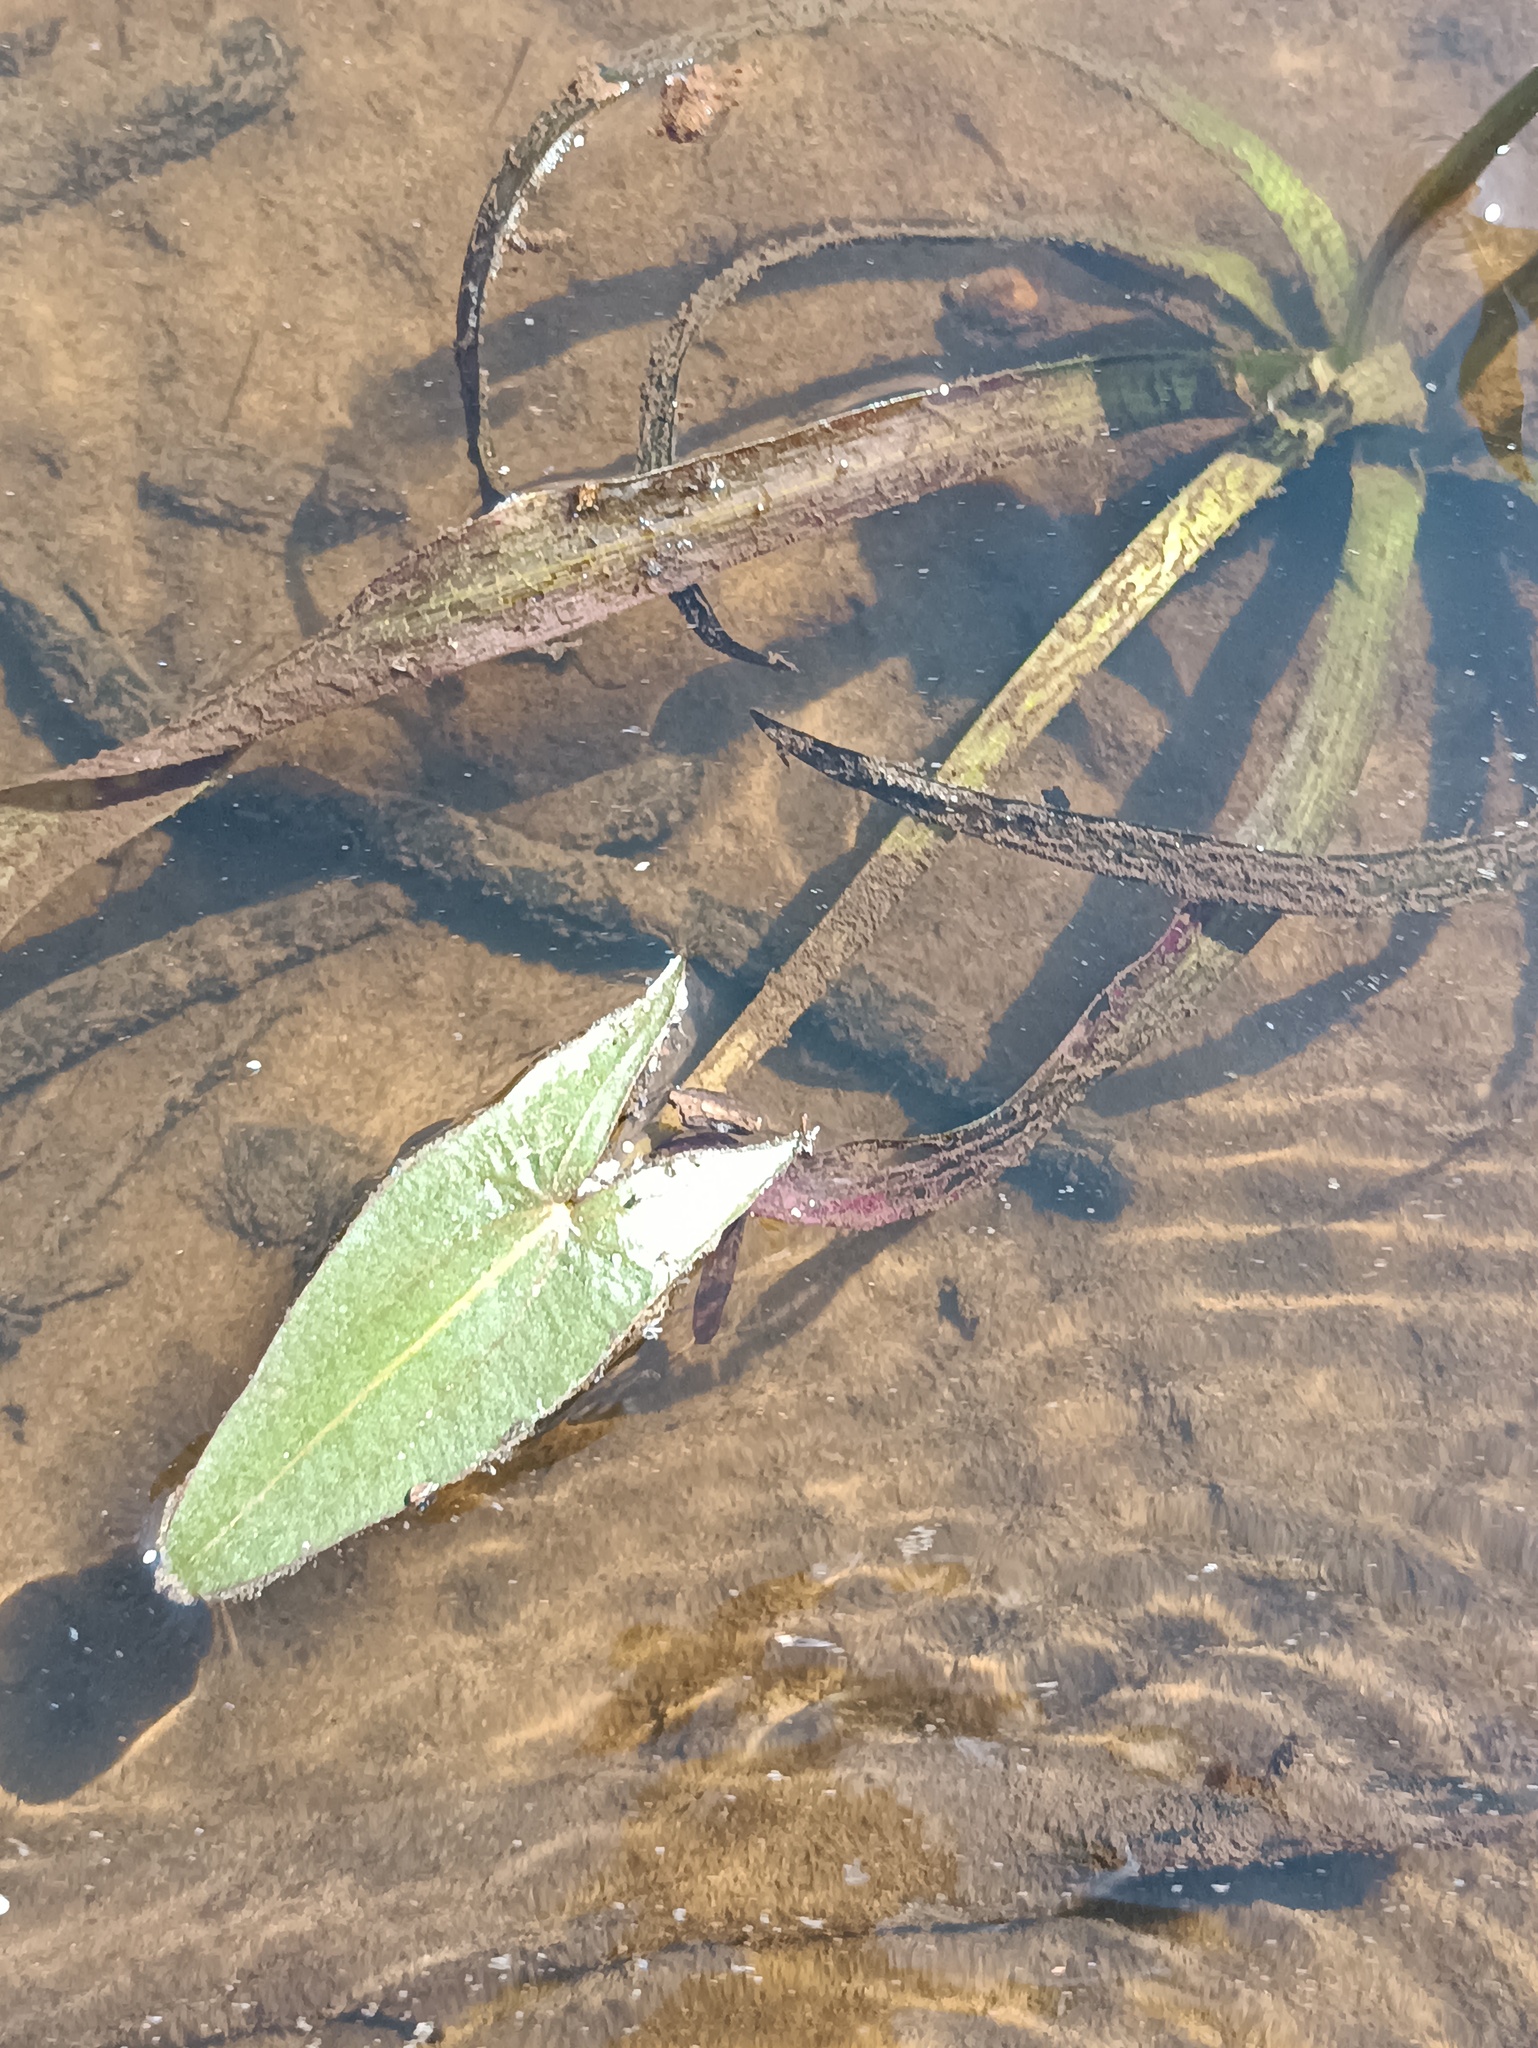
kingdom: Plantae
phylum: Tracheophyta
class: Liliopsida
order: Alismatales
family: Alismataceae
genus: Sagittaria
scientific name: Sagittaria sagittifolia
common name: Arrowhead
